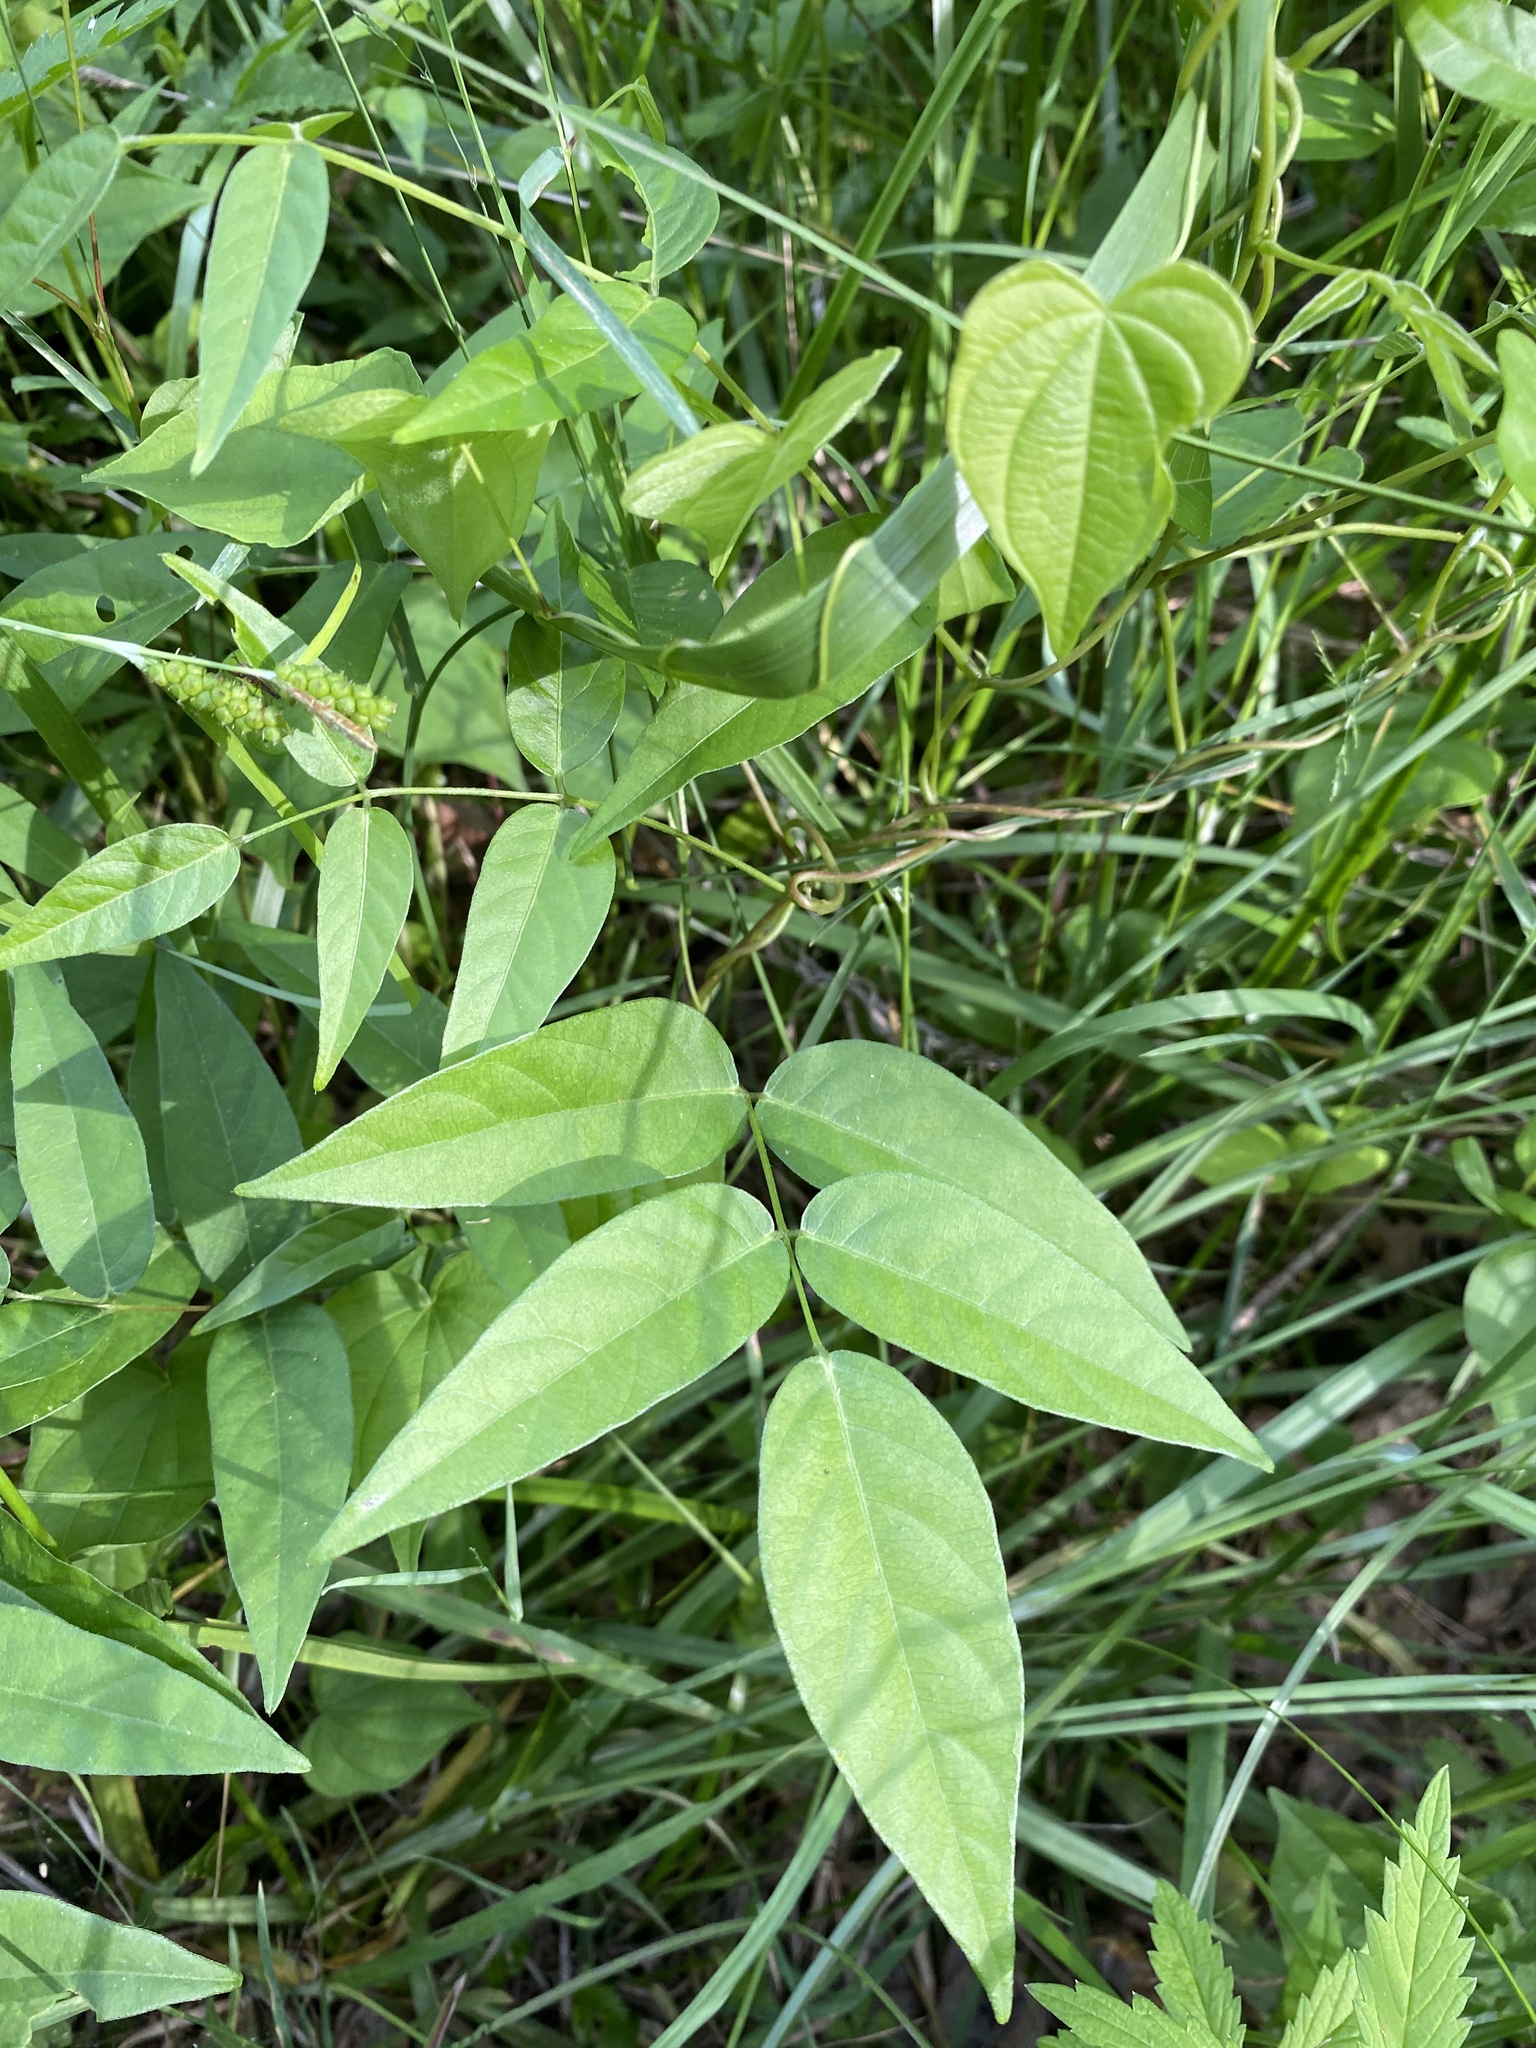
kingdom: Plantae
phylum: Tracheophyta
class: Magnoliopsida
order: Fabales
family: Fabaceae
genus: Apios
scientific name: Apios americana
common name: American potato-bean
